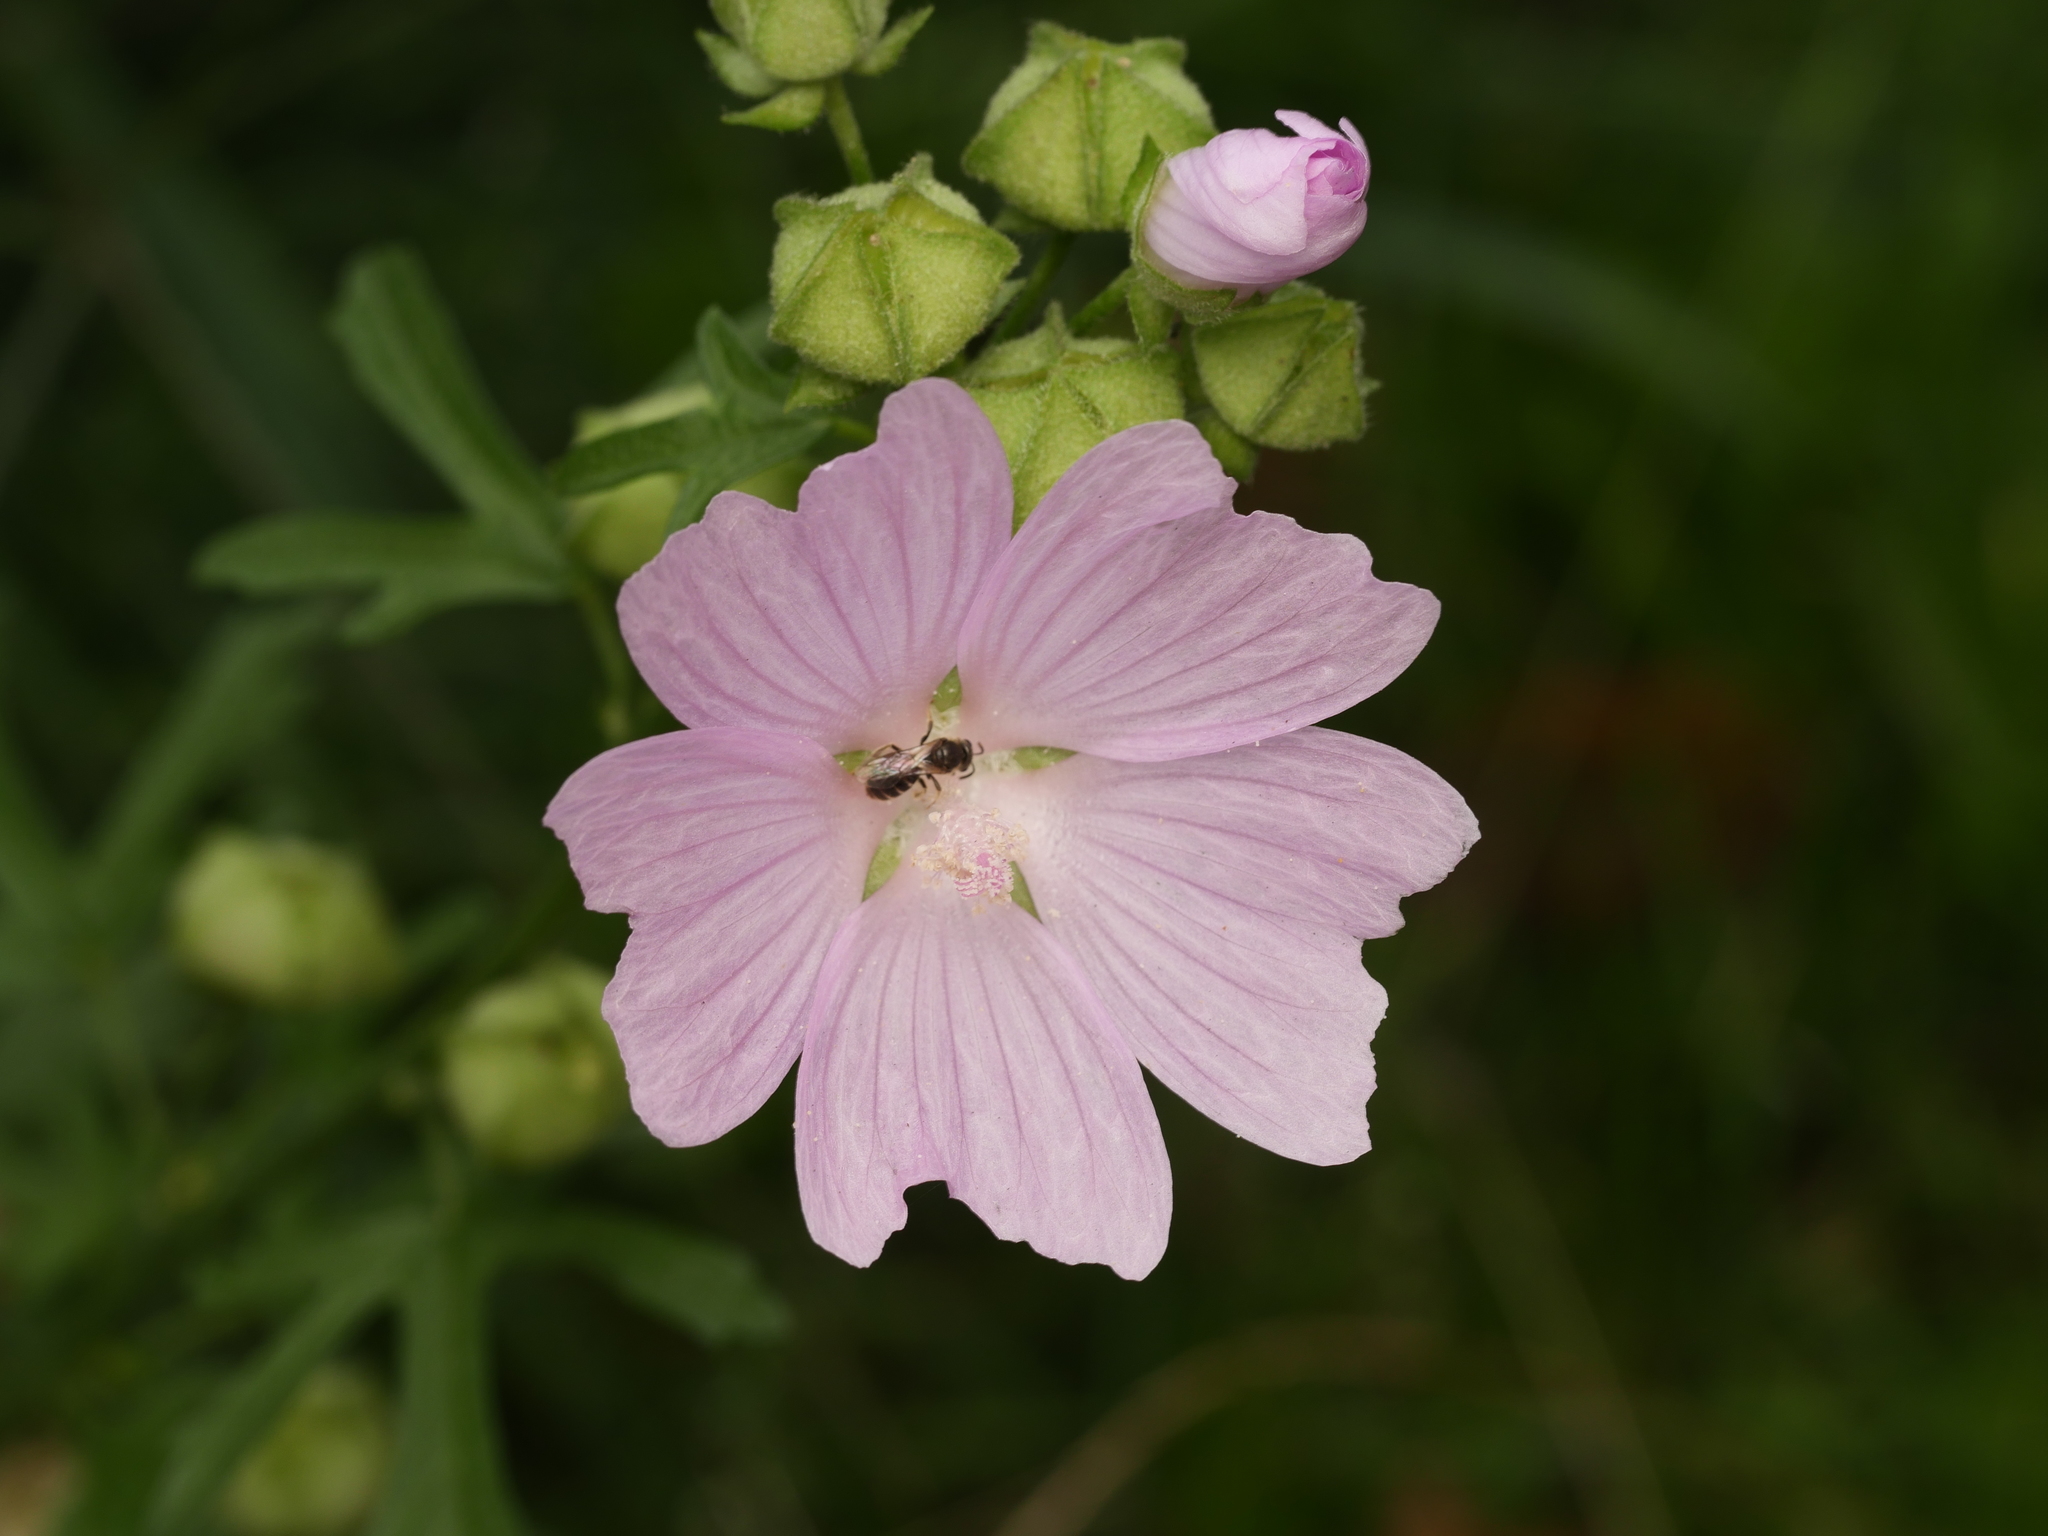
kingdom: Plantae
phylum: Tracheophyta
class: Magnoliopsida
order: Malvales
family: Malvaceae
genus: Malva
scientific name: Malva alcea
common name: Greater musk-mallow
